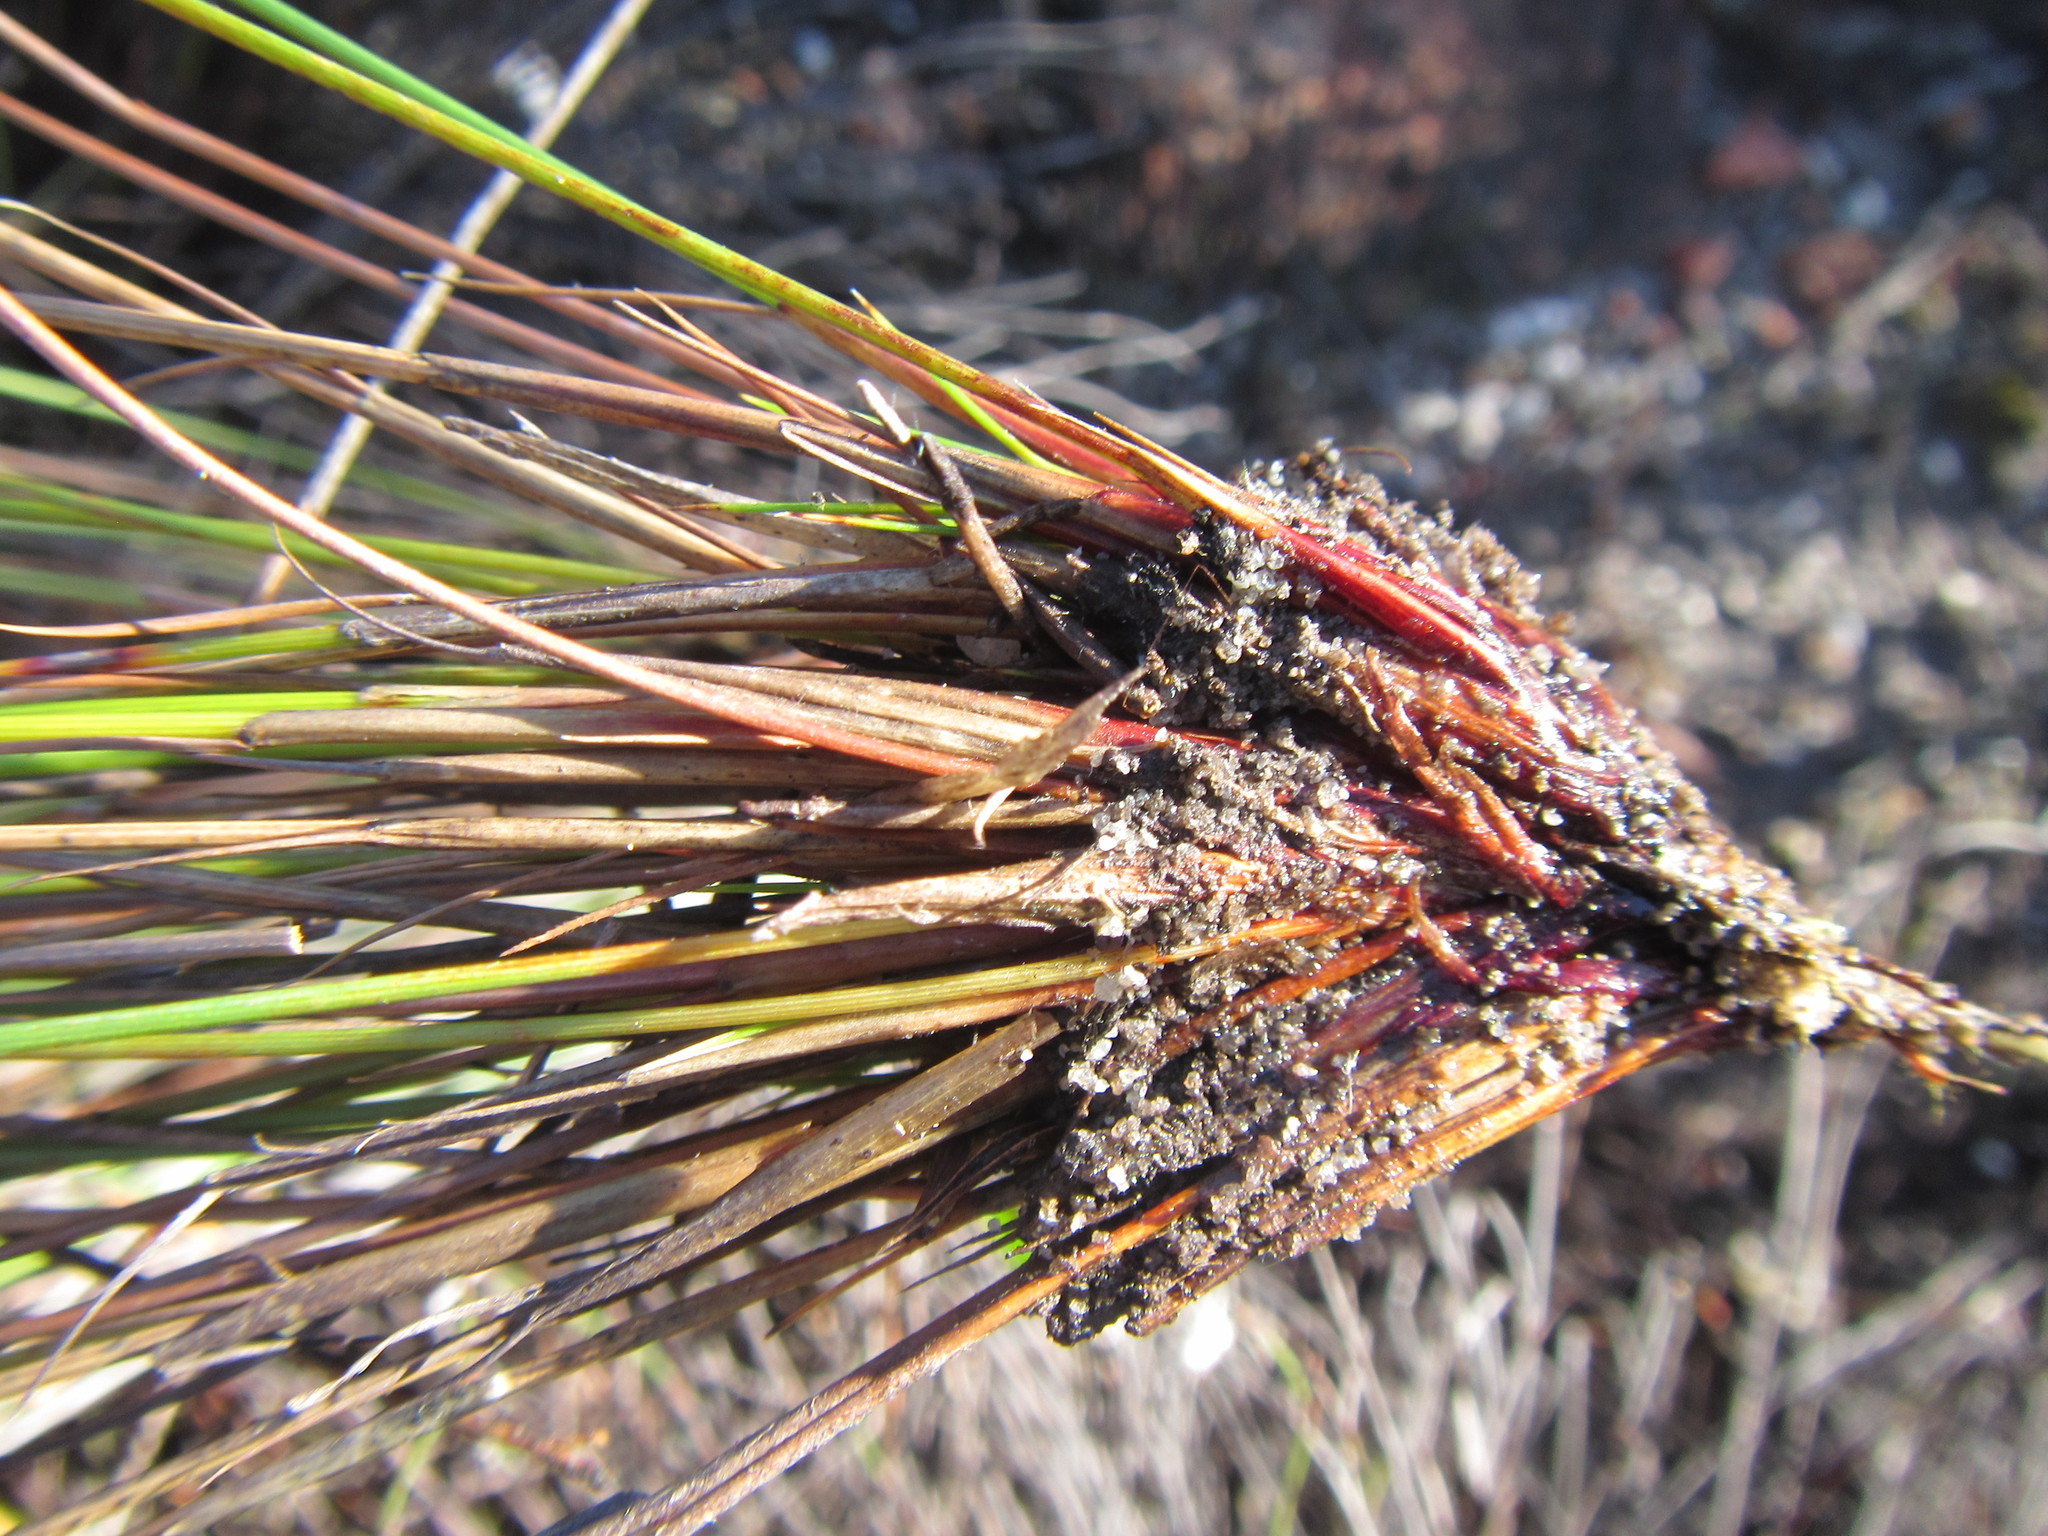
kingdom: Plantae
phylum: Tracheophyta
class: Liliopsida
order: Poales
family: Cyperaceae
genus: Schoenus
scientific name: Schoenus pictus
